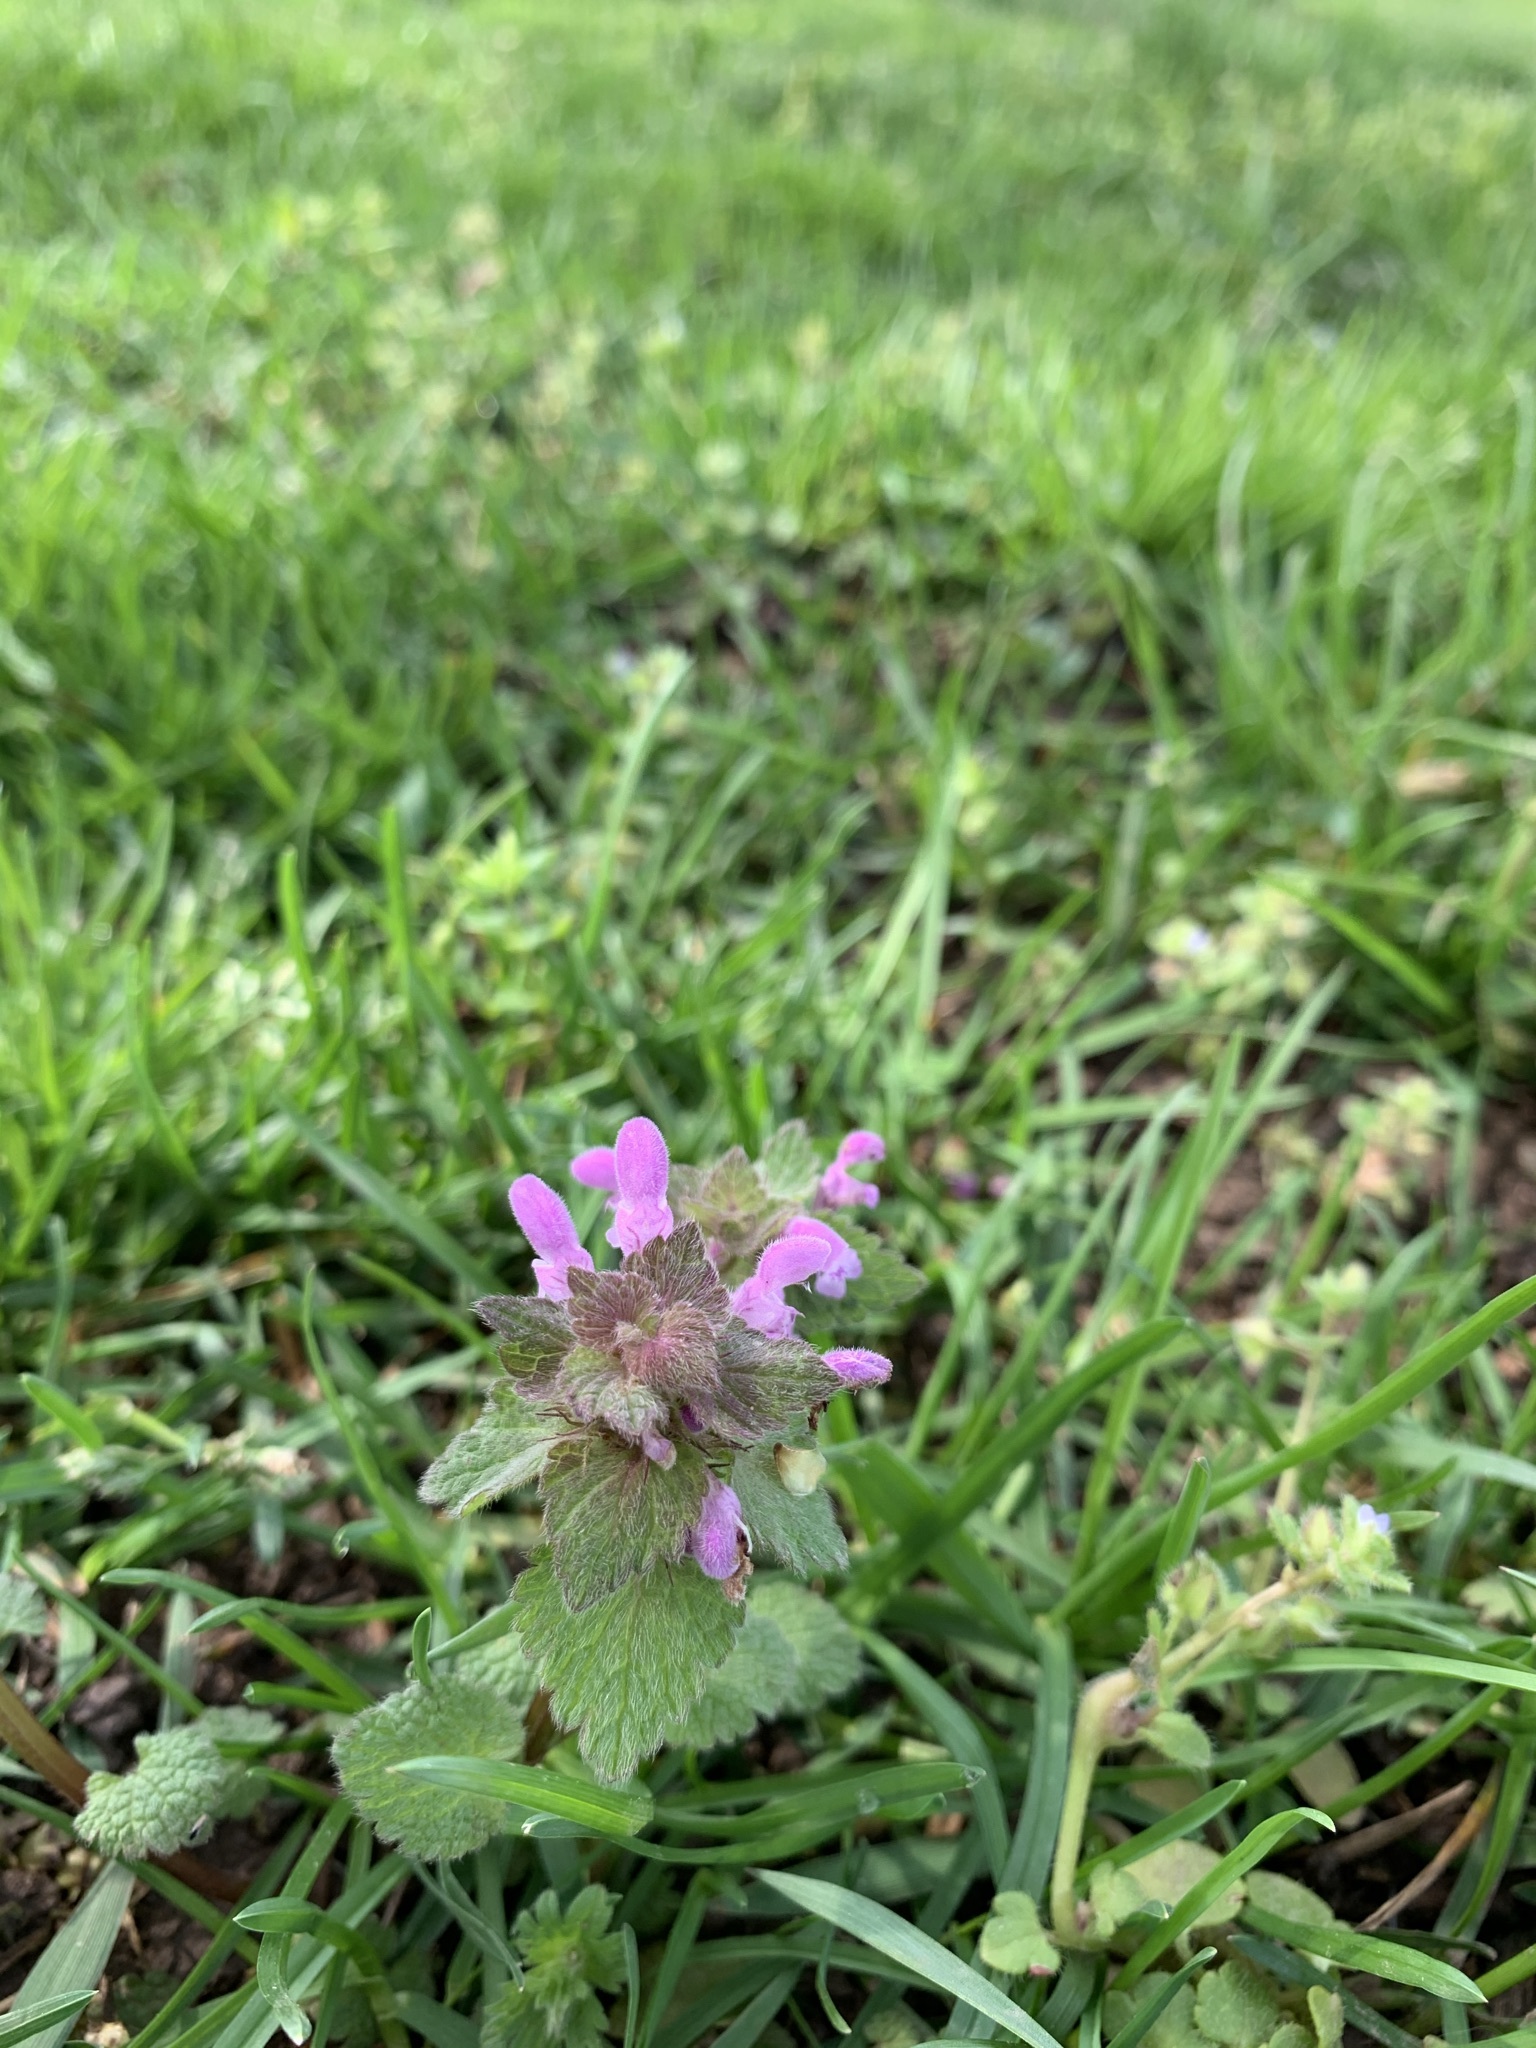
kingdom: Plantae
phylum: Tracheophyta
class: Magnoliopsida
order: Lamiales
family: Lamiaceae
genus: Lamium
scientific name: Lamium purpureum
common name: Red dead-nettle
